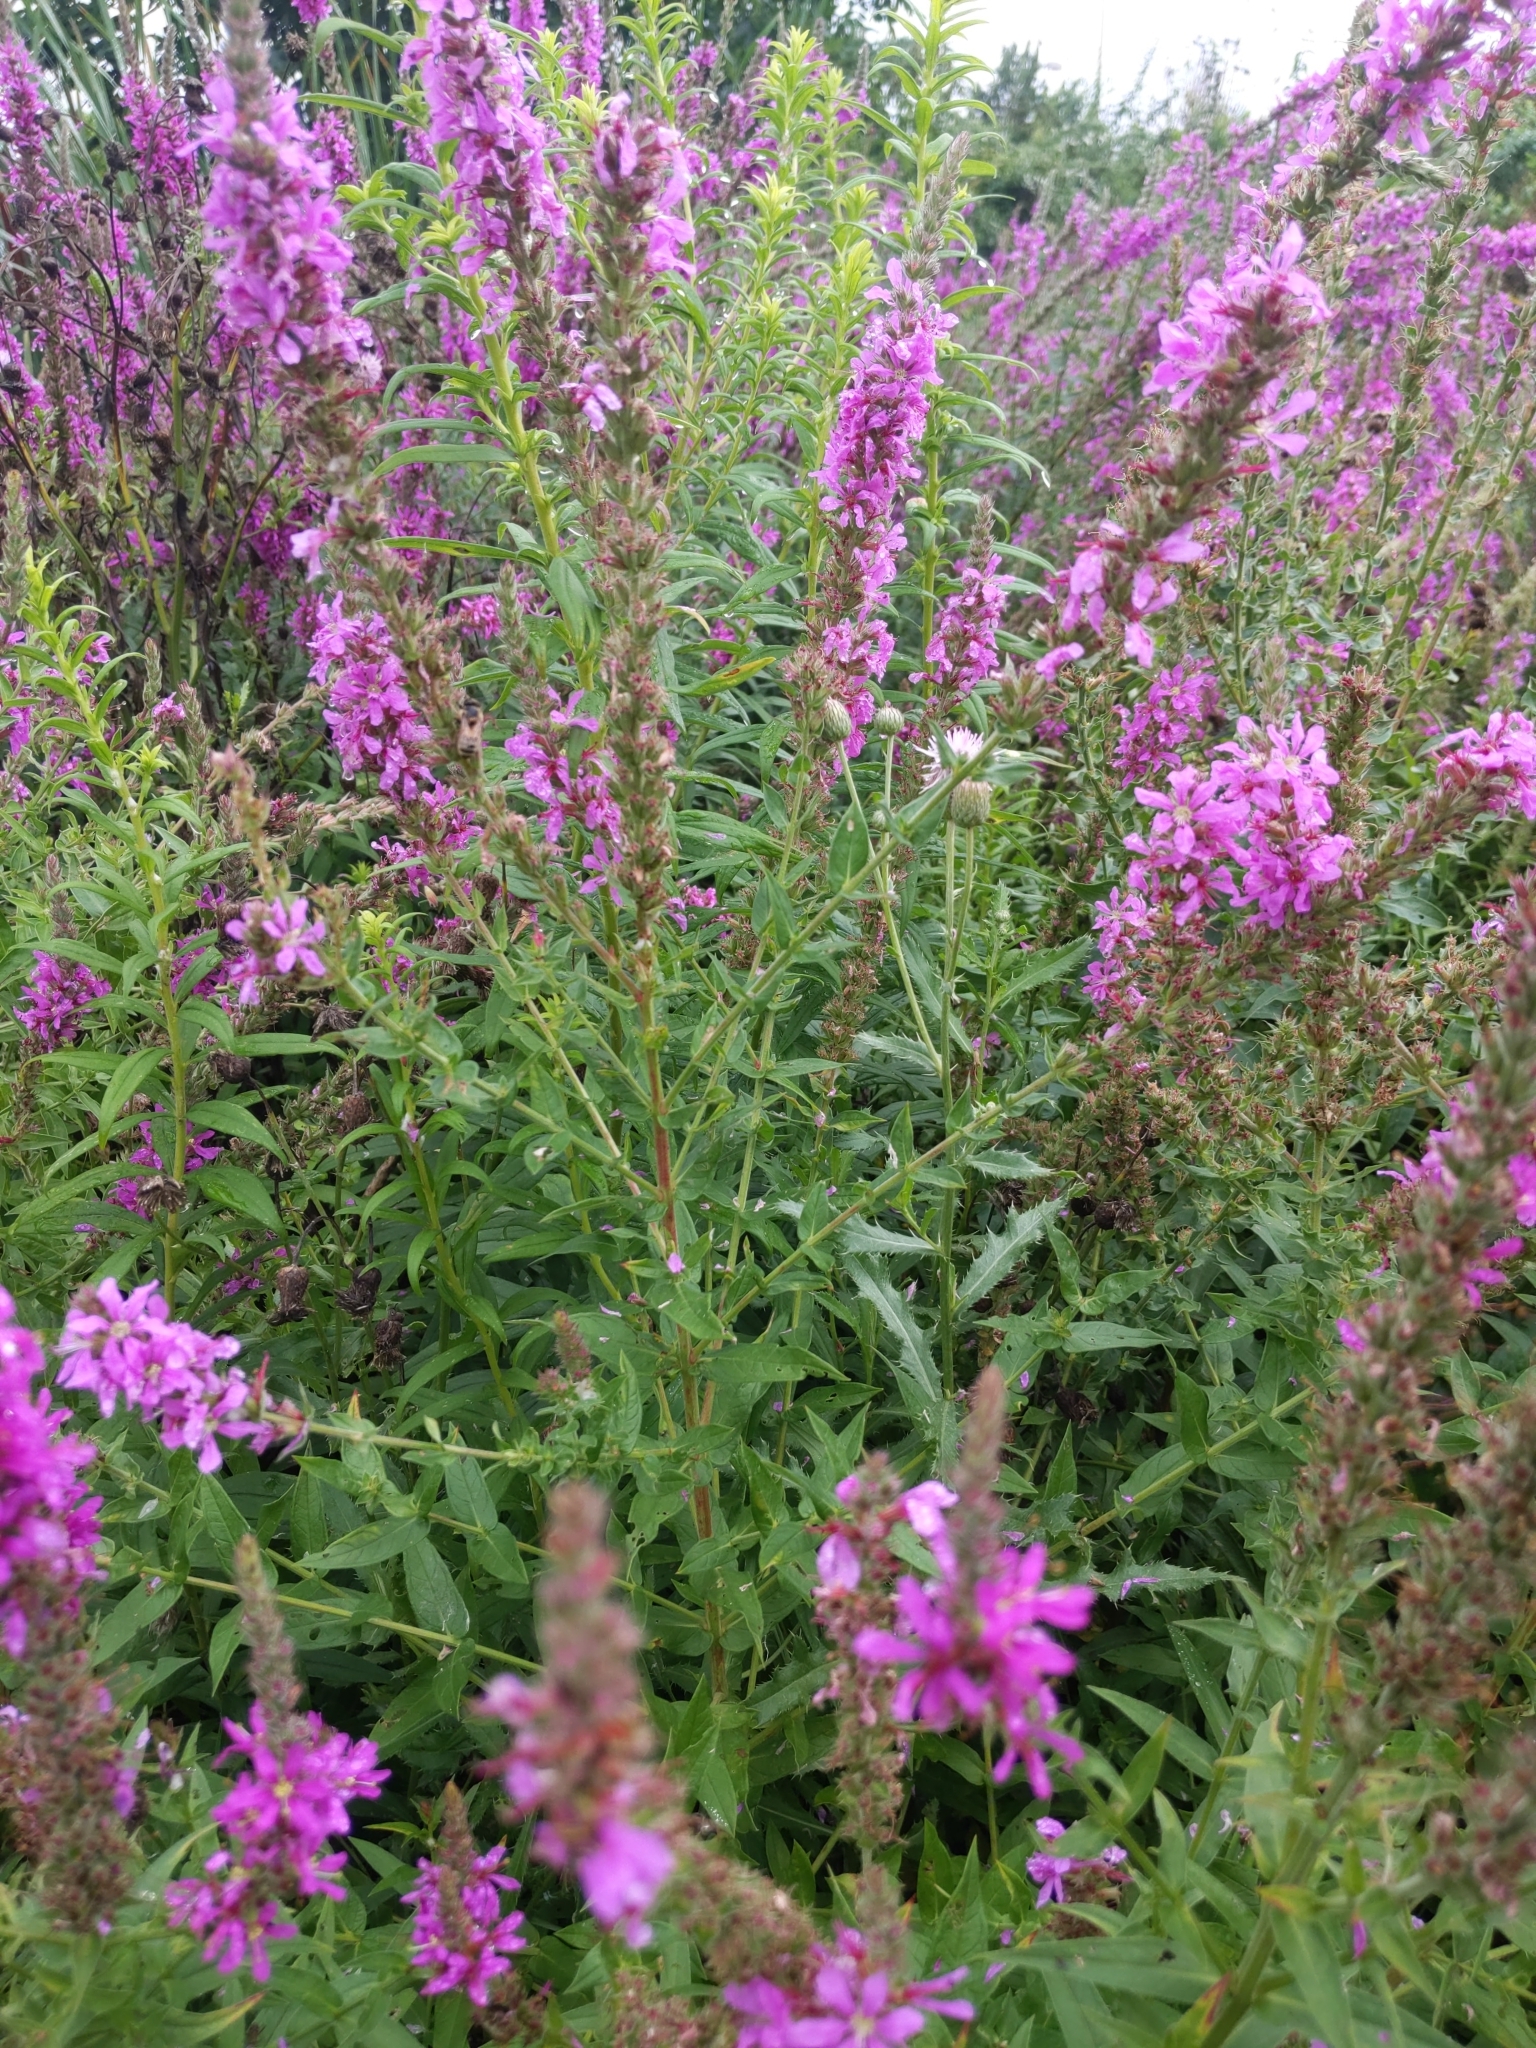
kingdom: Plantae
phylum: Tracheophyta
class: Magnoliopsida
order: Myrtales
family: Lythraceae
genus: Lythrum
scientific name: Lythrum salicaria
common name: Purple loosestrife
